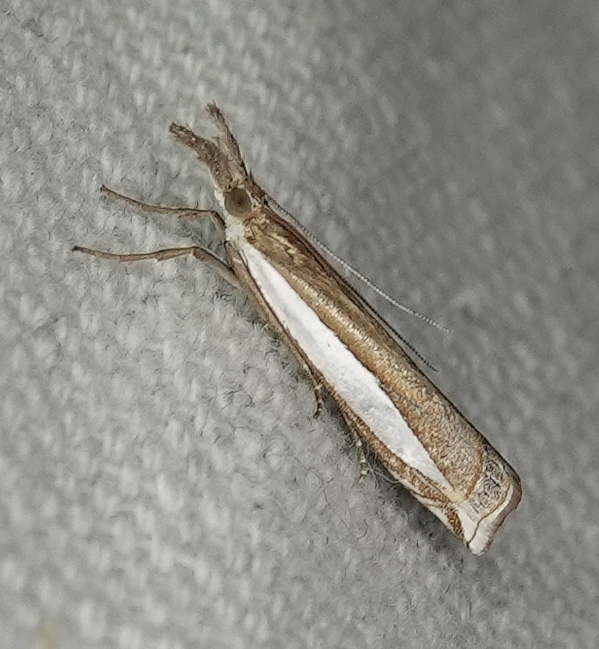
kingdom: Animalia
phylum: Arthropoda
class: Insecta
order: Lepidoptera
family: Crambidae
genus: Crambus
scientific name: Crambus leachellus
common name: Leach's grass-veneer
